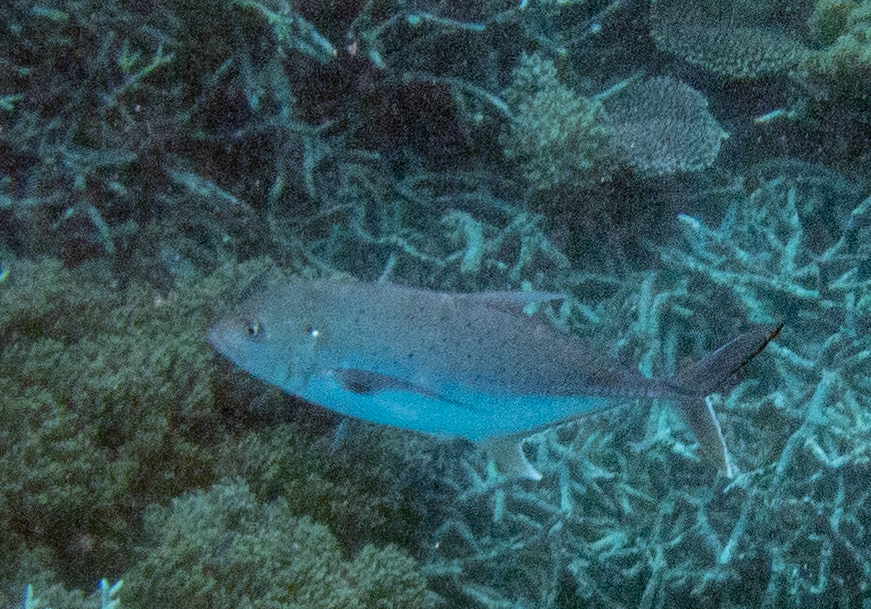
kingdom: Animalia
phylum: Chordata
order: Perciformes
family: Carangidae
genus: Caranx
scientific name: Caranx papuensis
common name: Brassy trevally
